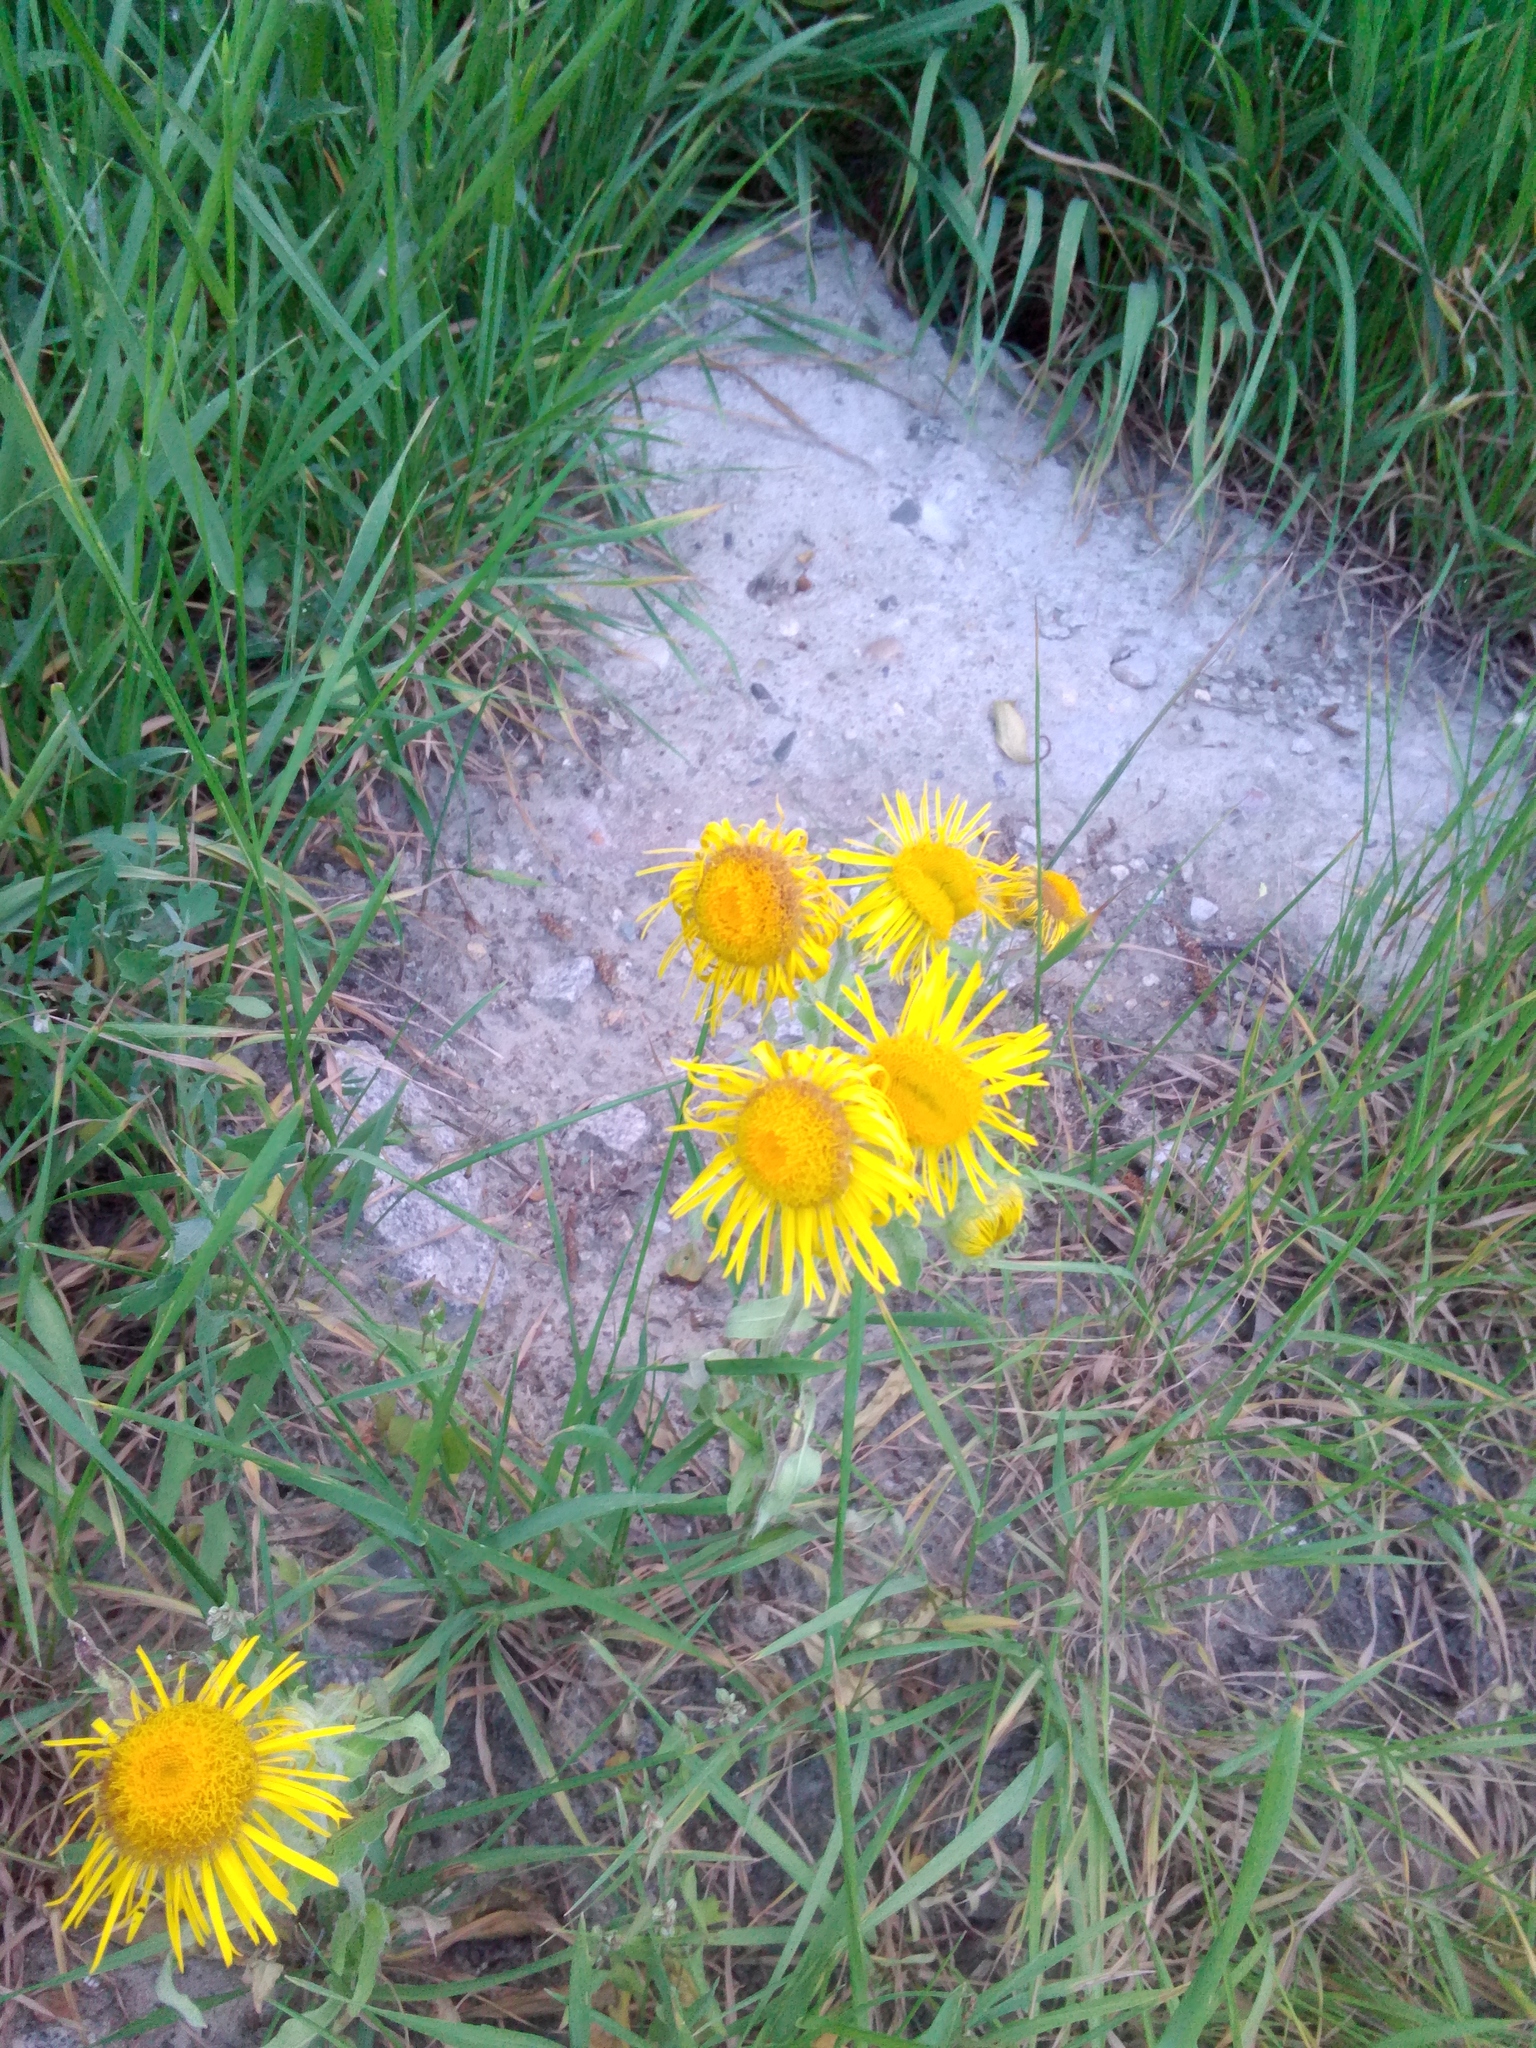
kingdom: Plantae
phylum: Tracheophyta
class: Magnoliopsida
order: Asterales
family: Asteraceae
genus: Pentanema
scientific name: Pentanema britannicum
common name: British elecampane
